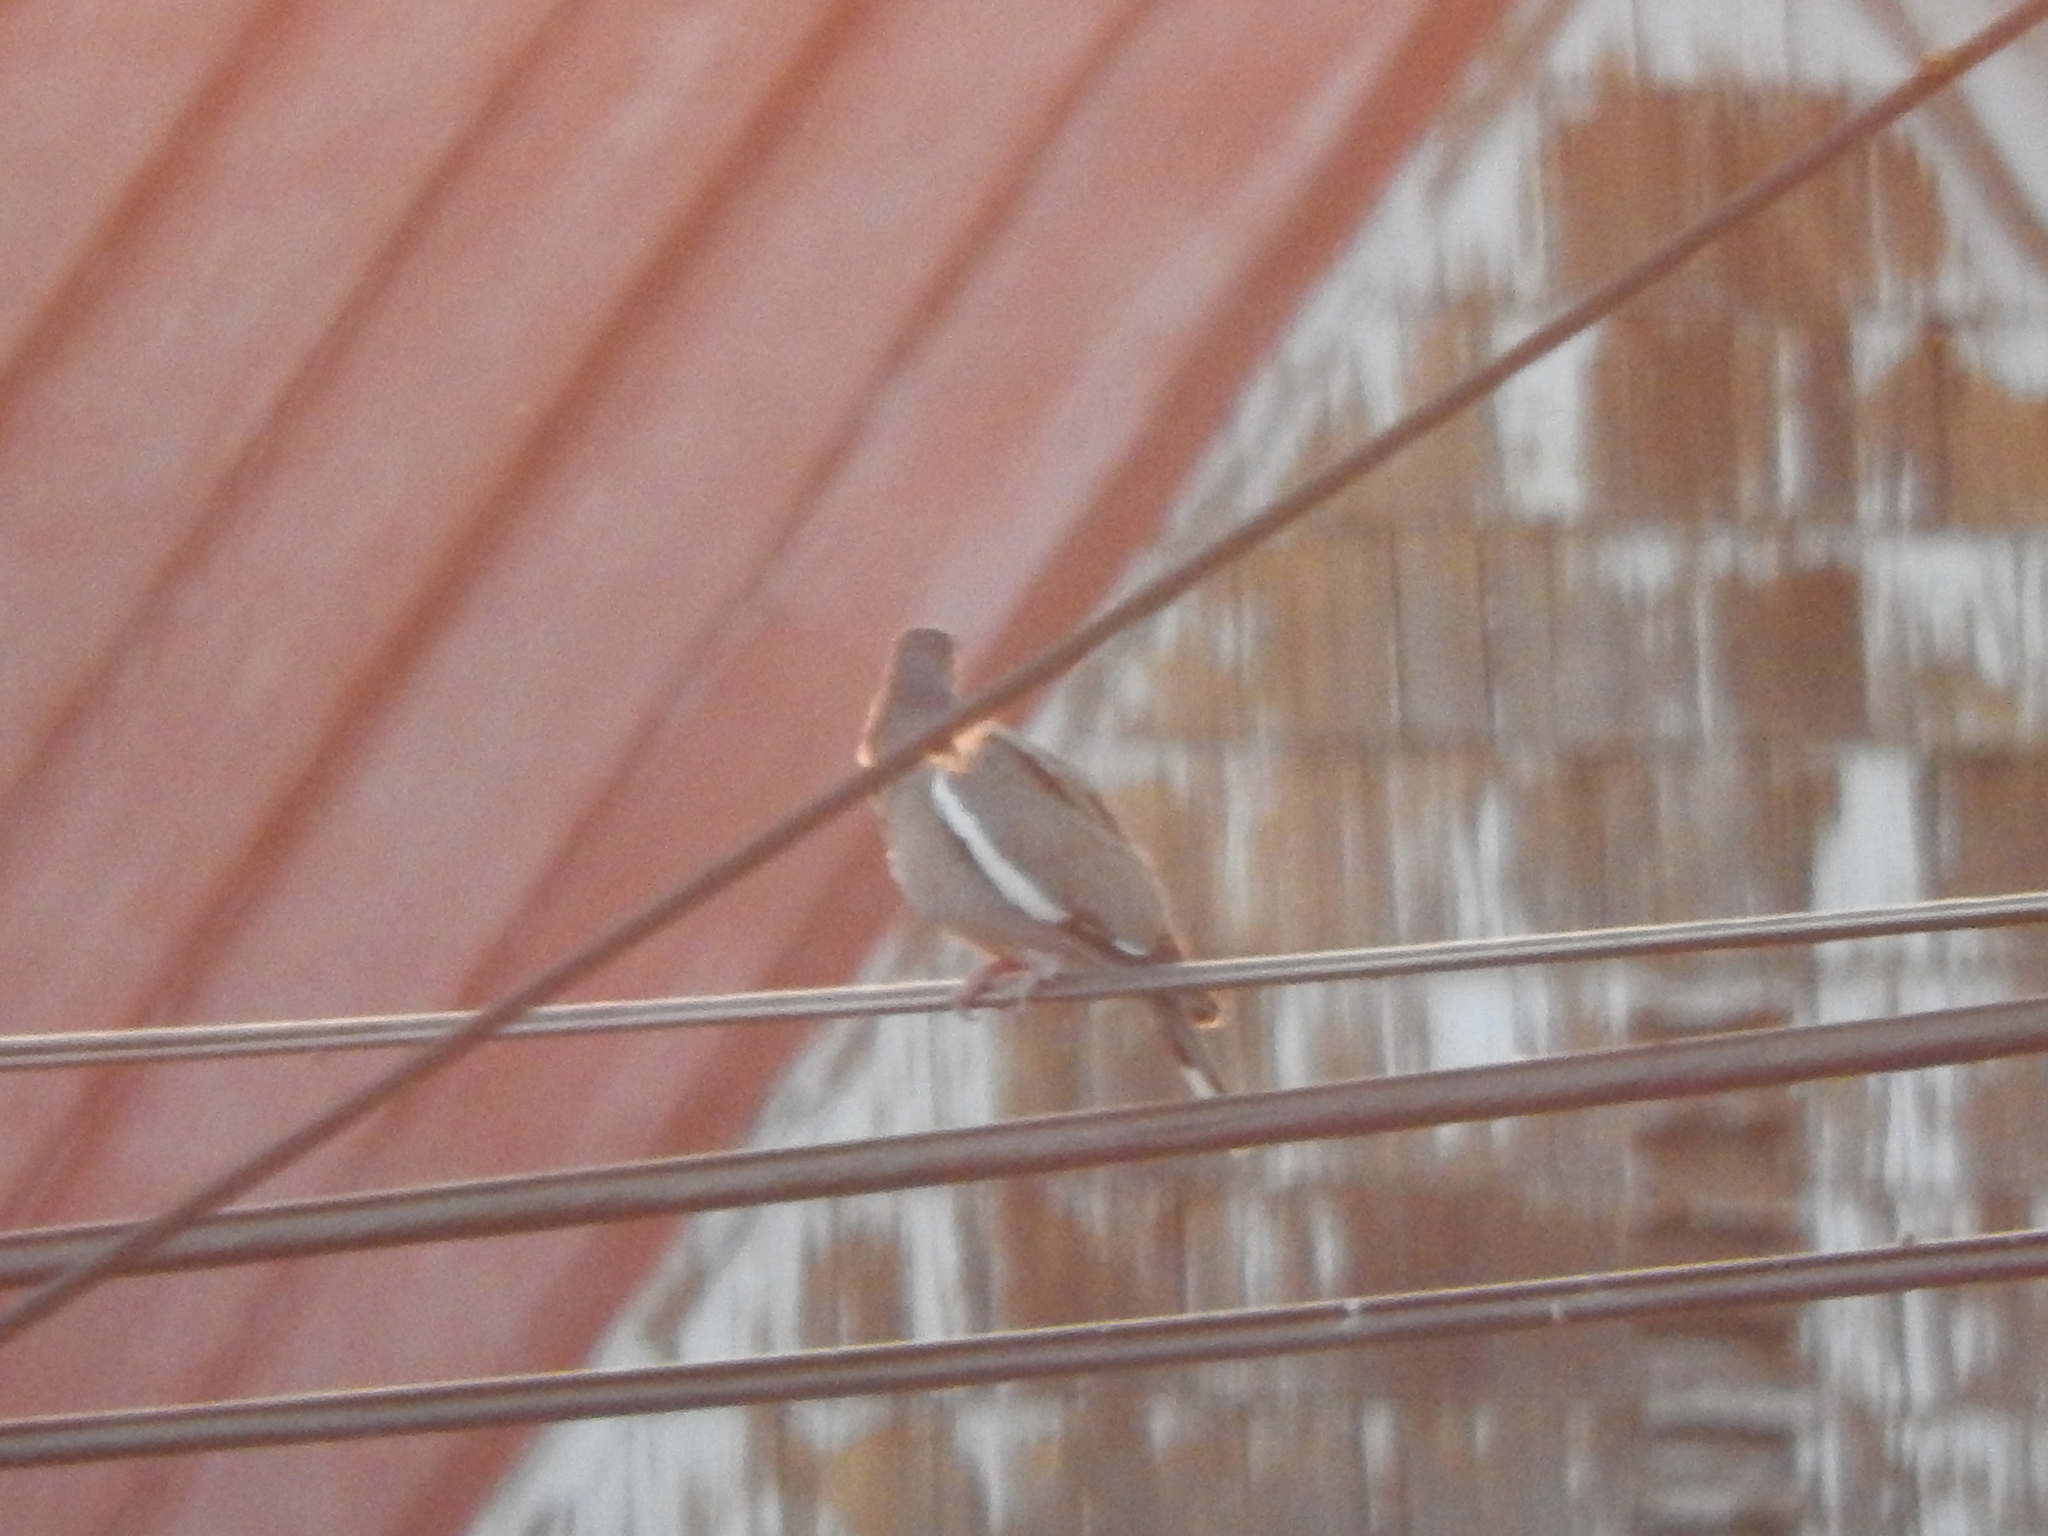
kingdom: Animalia
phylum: Chordata
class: Aves
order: Columbiformes
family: Columbidae
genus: Zenaida
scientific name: Zenaida asiatica
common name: White-winged dove
